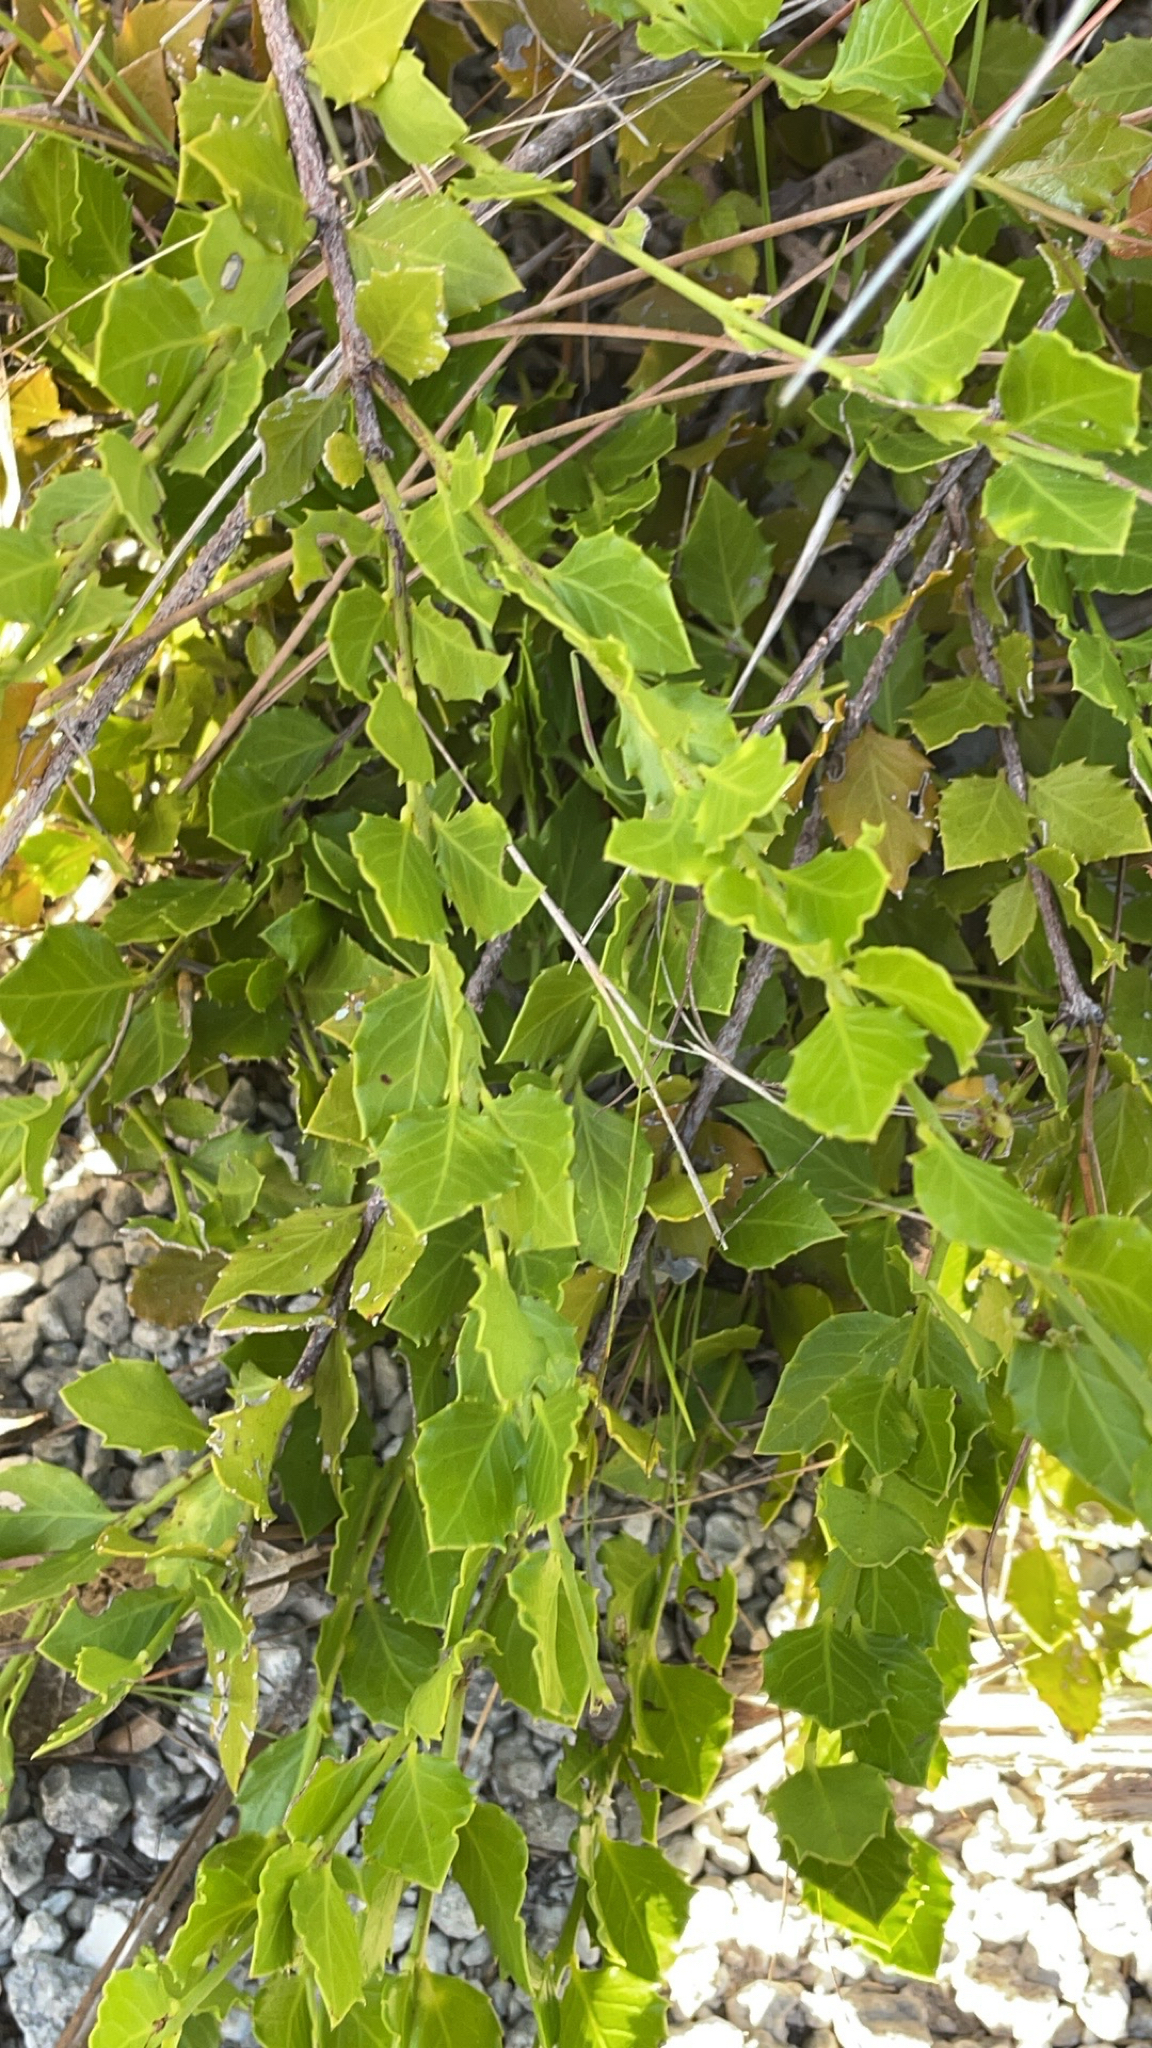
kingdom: Plantae
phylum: Tracheophyta
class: Magnoliopsida
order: Celastrales
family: Celastraceae
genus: Crossopetalum
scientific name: Crossopetalum ilicifolium
